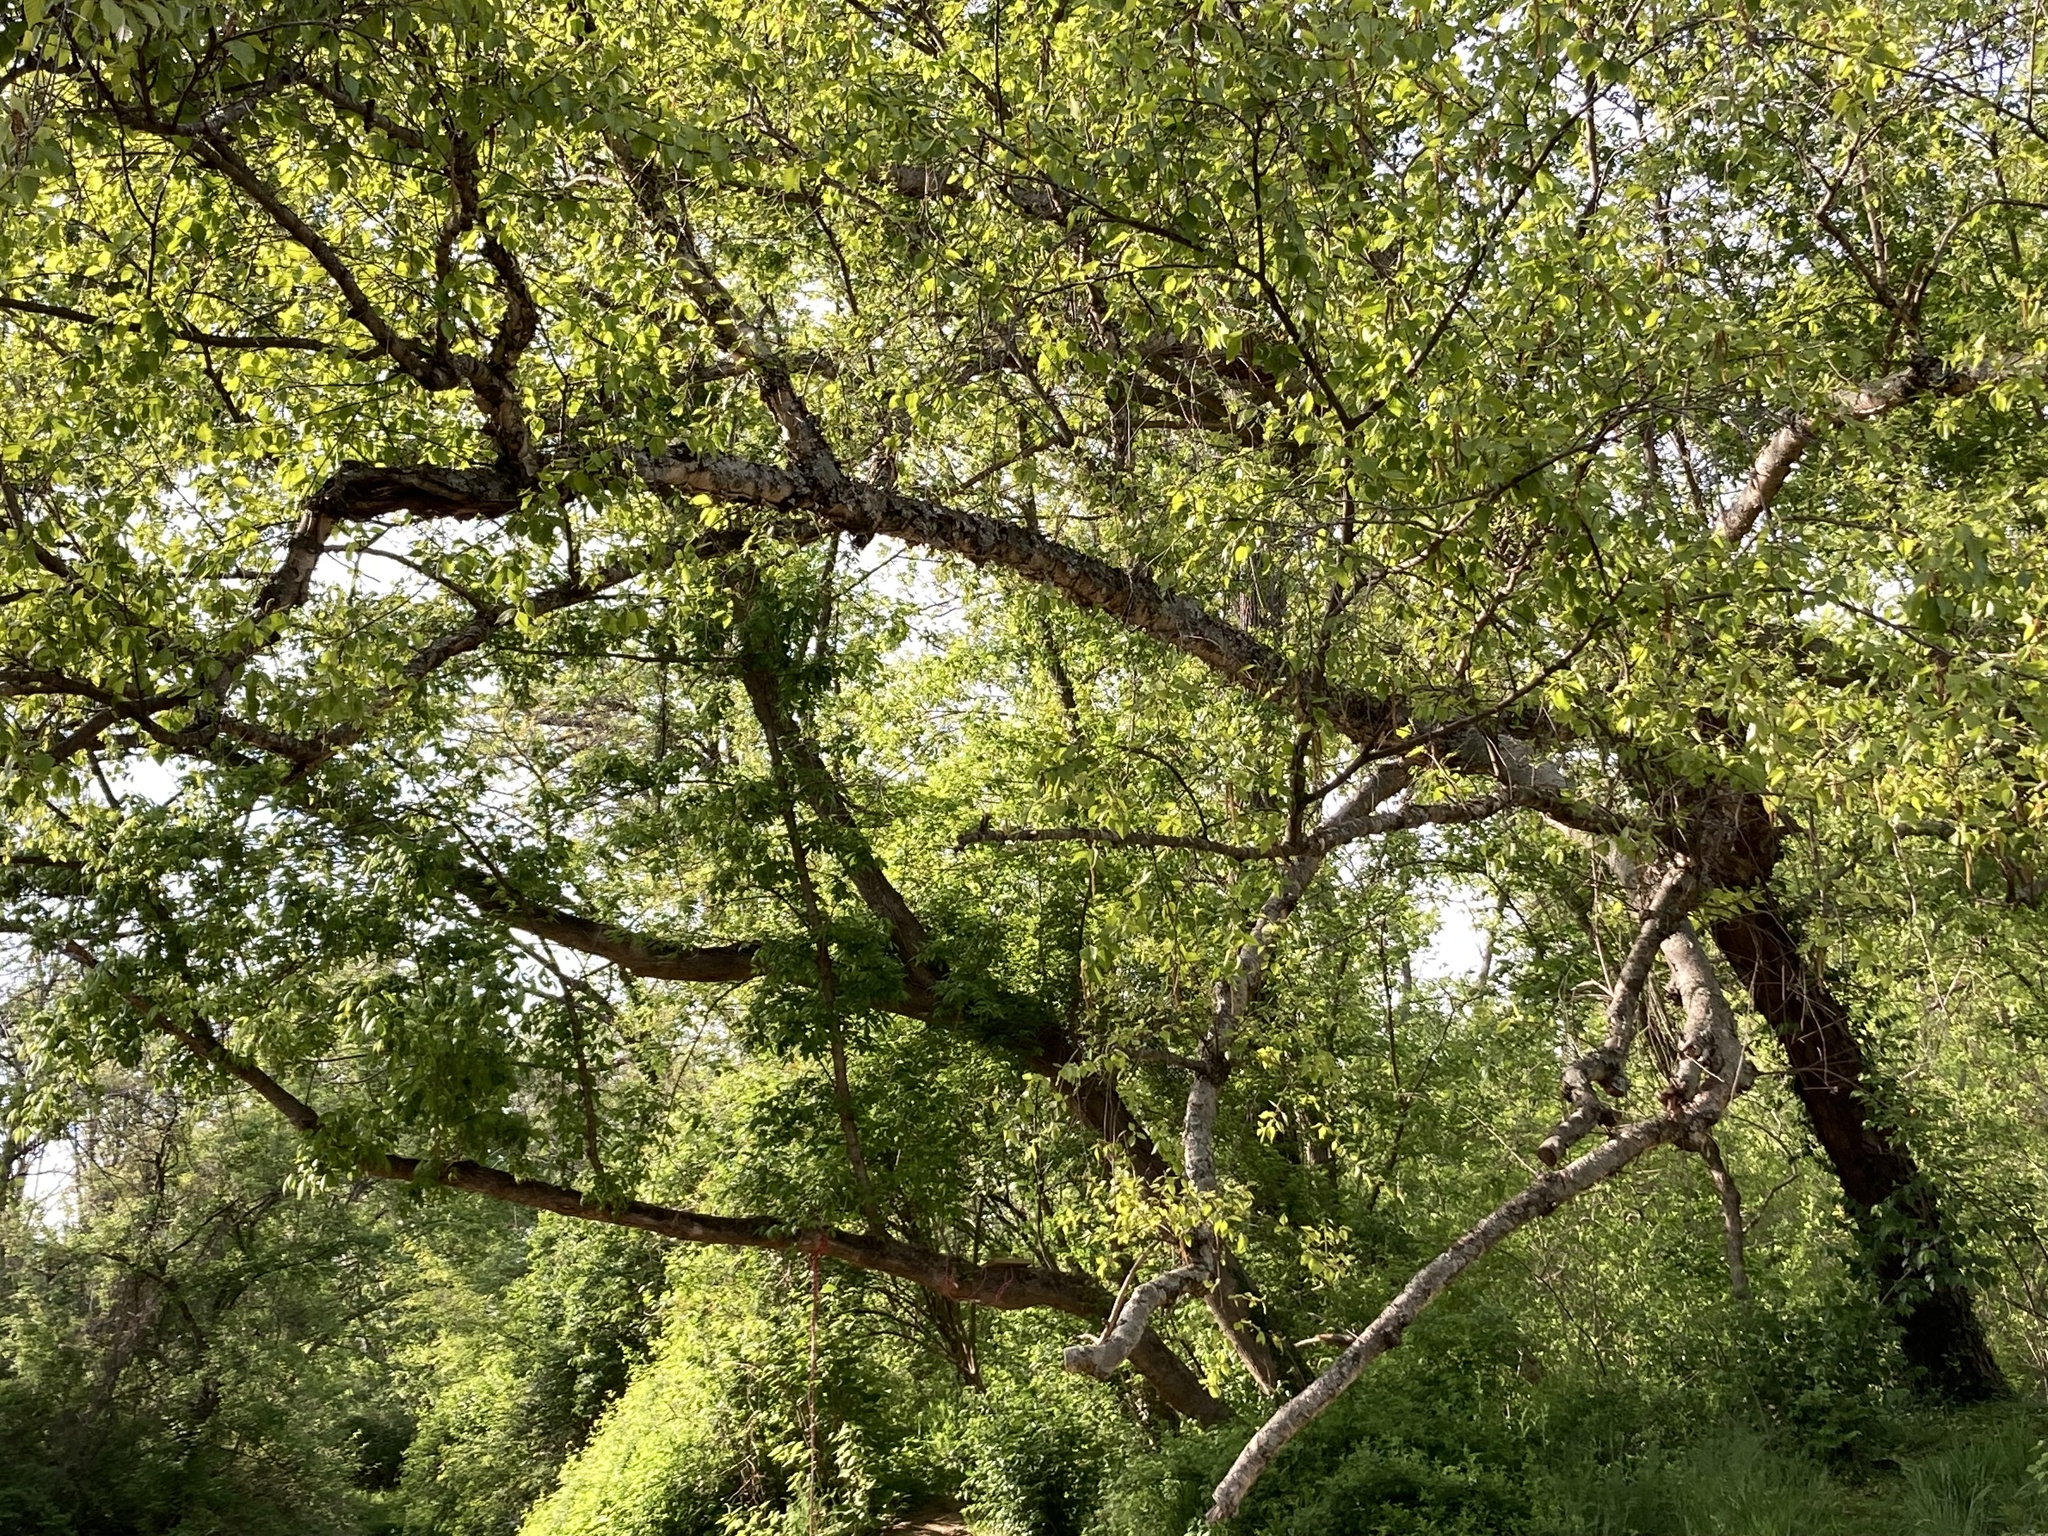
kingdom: Plantae
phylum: Tracheophyta
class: Magnoliopsida
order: Fagales
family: Betulaceae
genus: Betula
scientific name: Betula nigra
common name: Black birch
